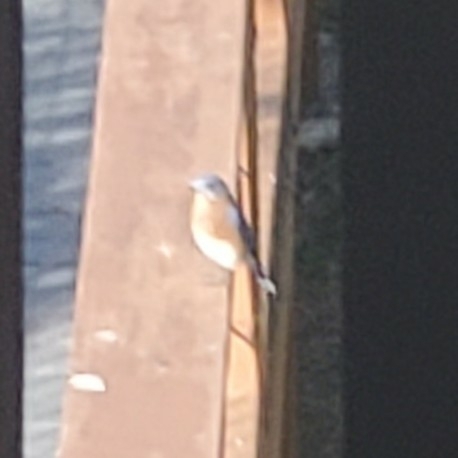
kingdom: Animalia
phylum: Chordata
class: Aves
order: Passeriformes
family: Turdidae
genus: Sialia
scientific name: Sialia sialis
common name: Eastern bluebird
